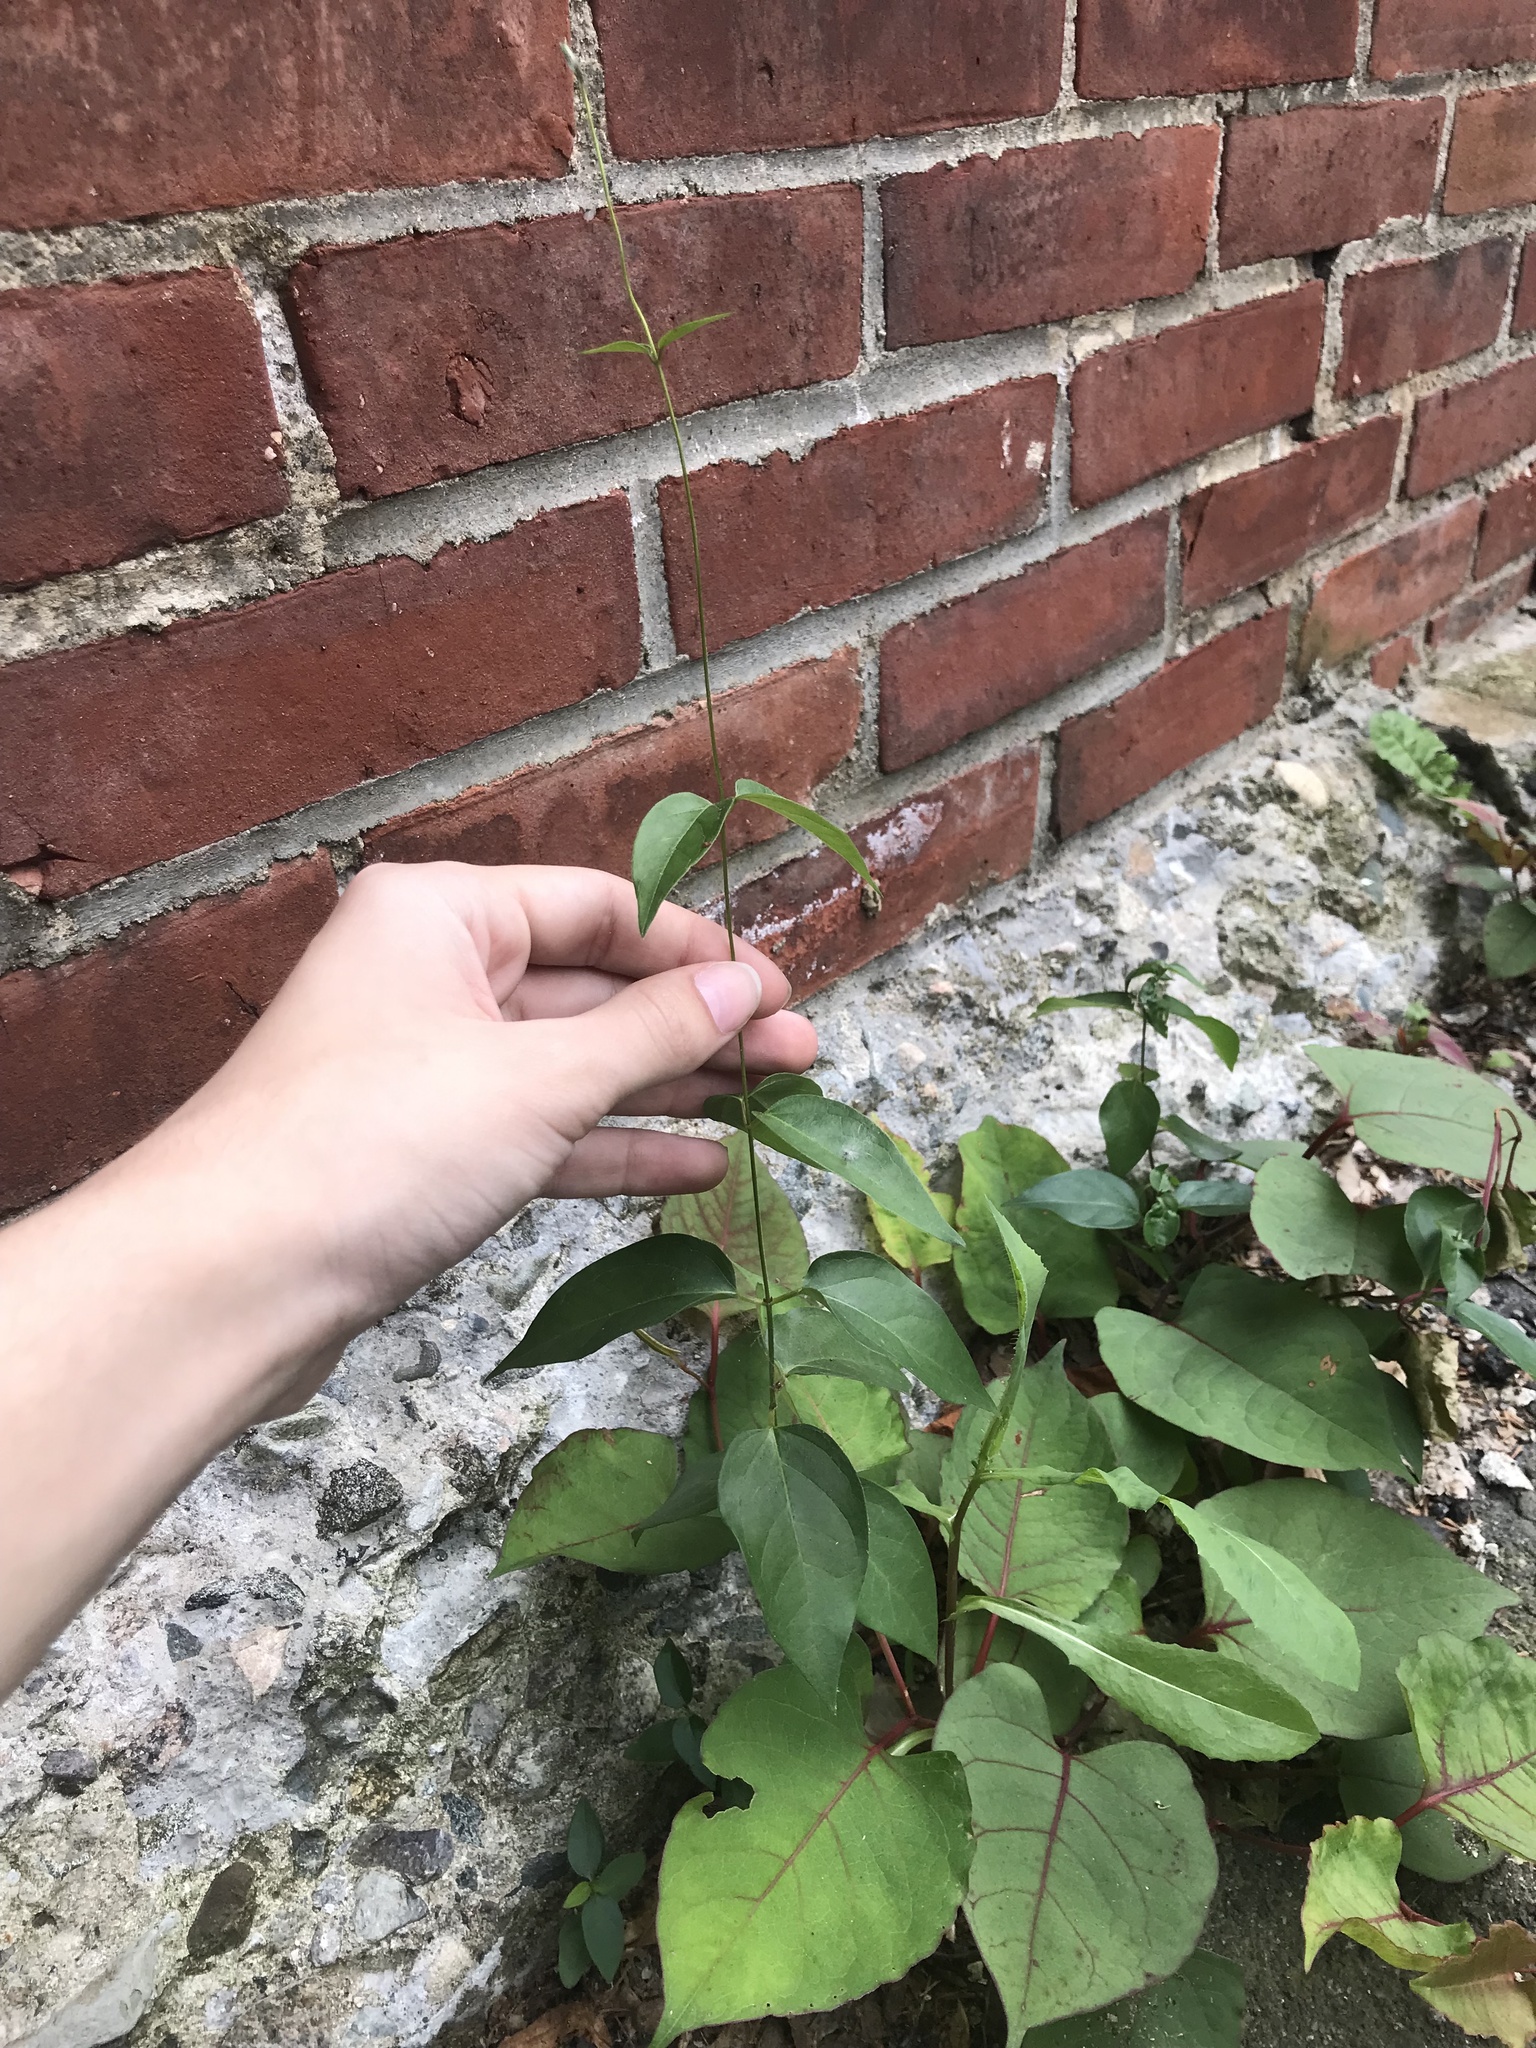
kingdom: Plantae
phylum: Tracheophyta
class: Magnoliopsida
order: Gentianales
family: Apocynaceae
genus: Vincetoxicum
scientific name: Vincetoxicum nigrum
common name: Black swallow-wort
